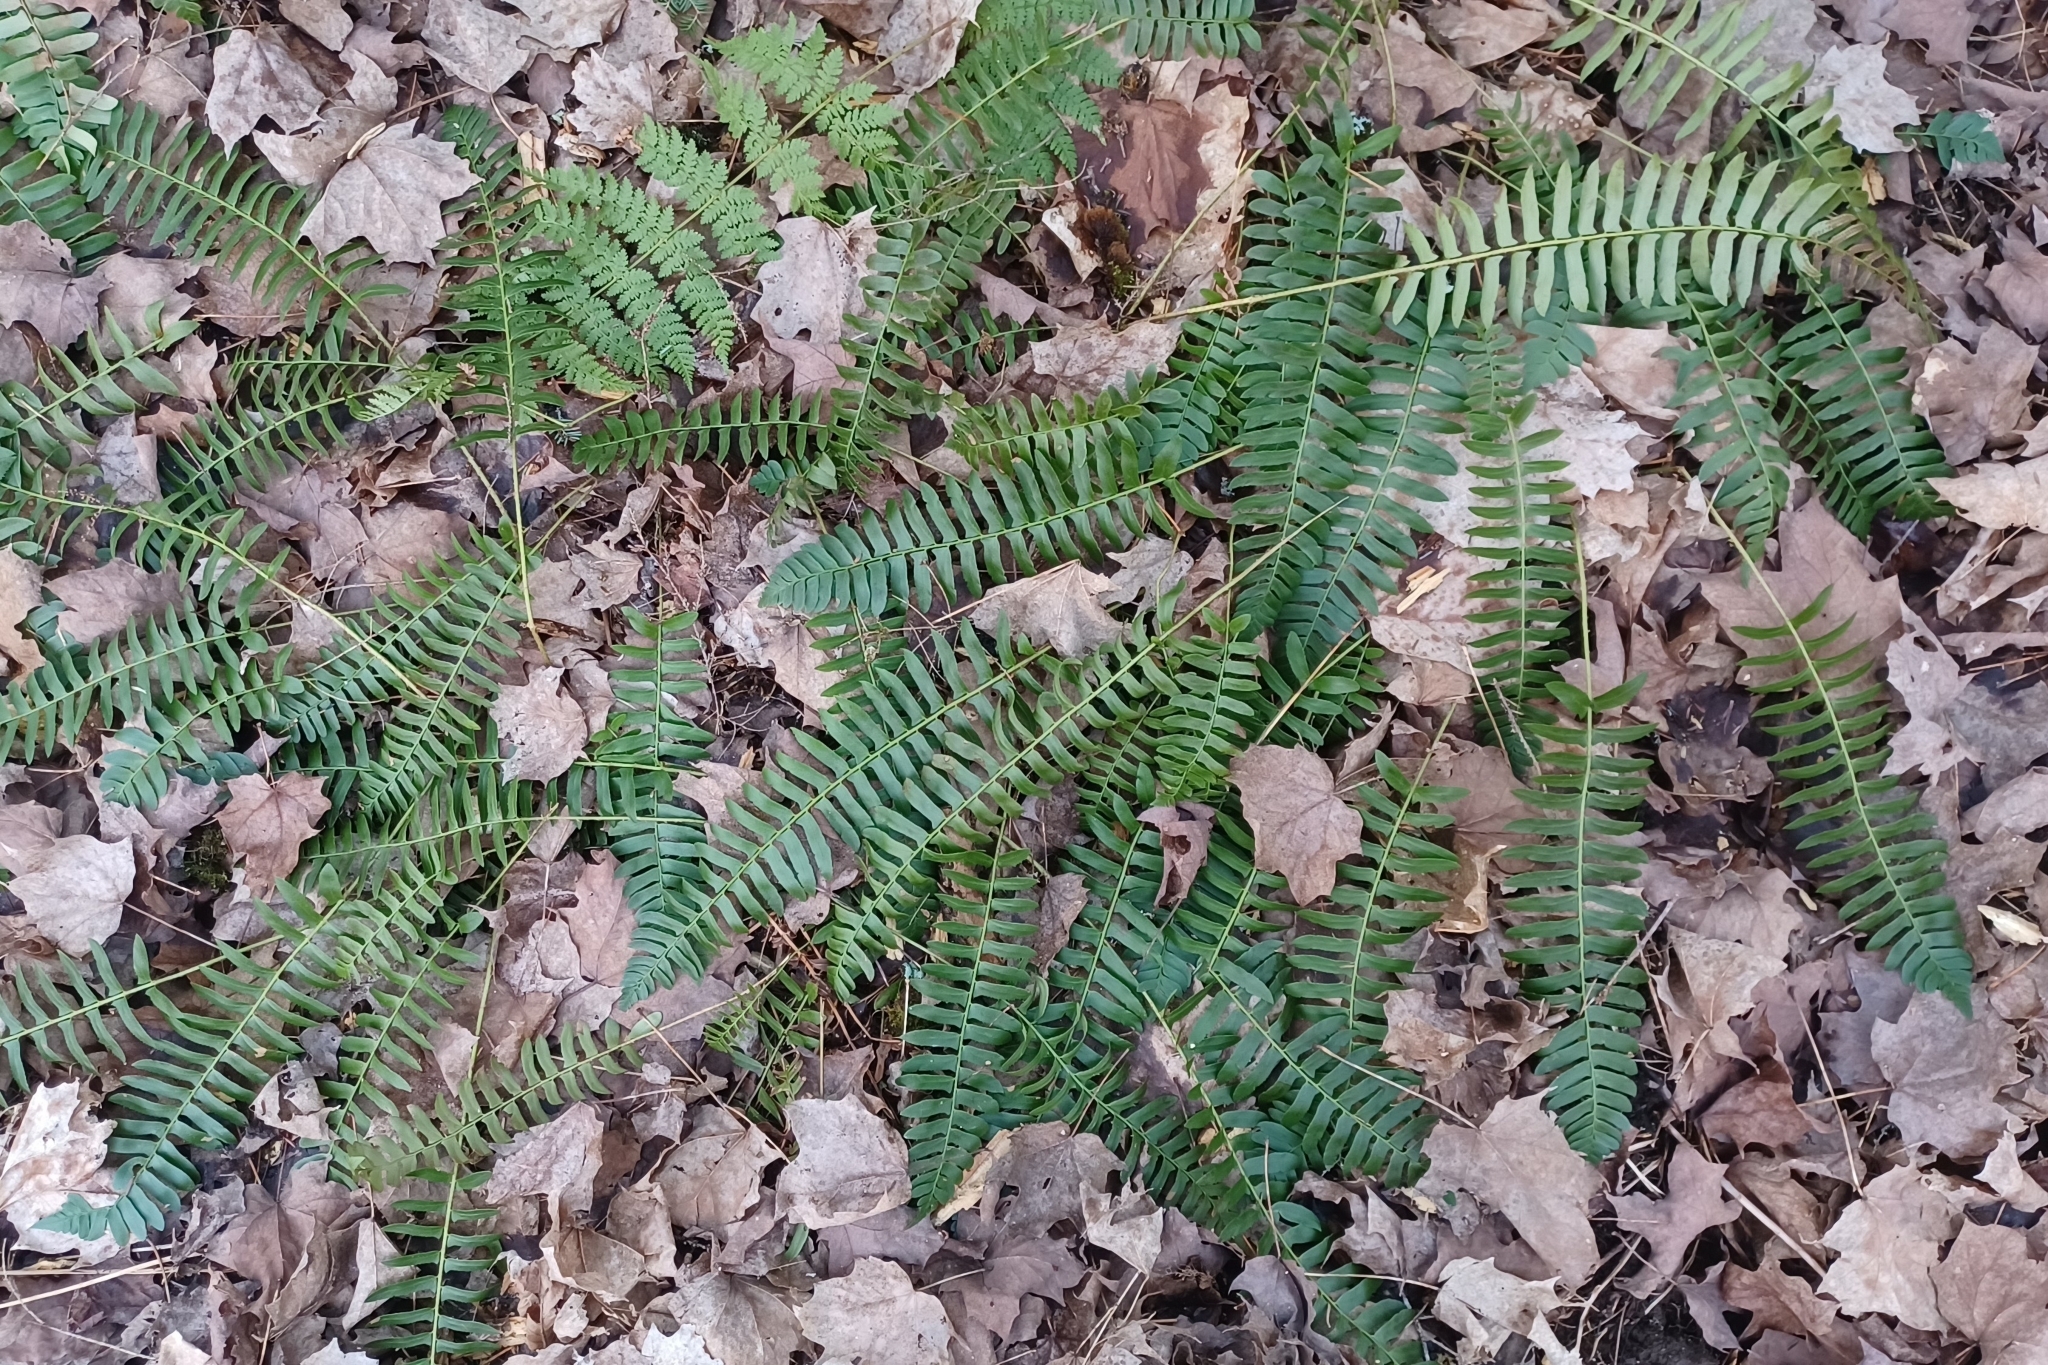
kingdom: Plantae
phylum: Tracheophyta
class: Polypodiopsida
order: Polypodiales
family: Dryopteridaceae
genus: Polystichum
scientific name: Polystichum acrostichoides
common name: Christmas fern
